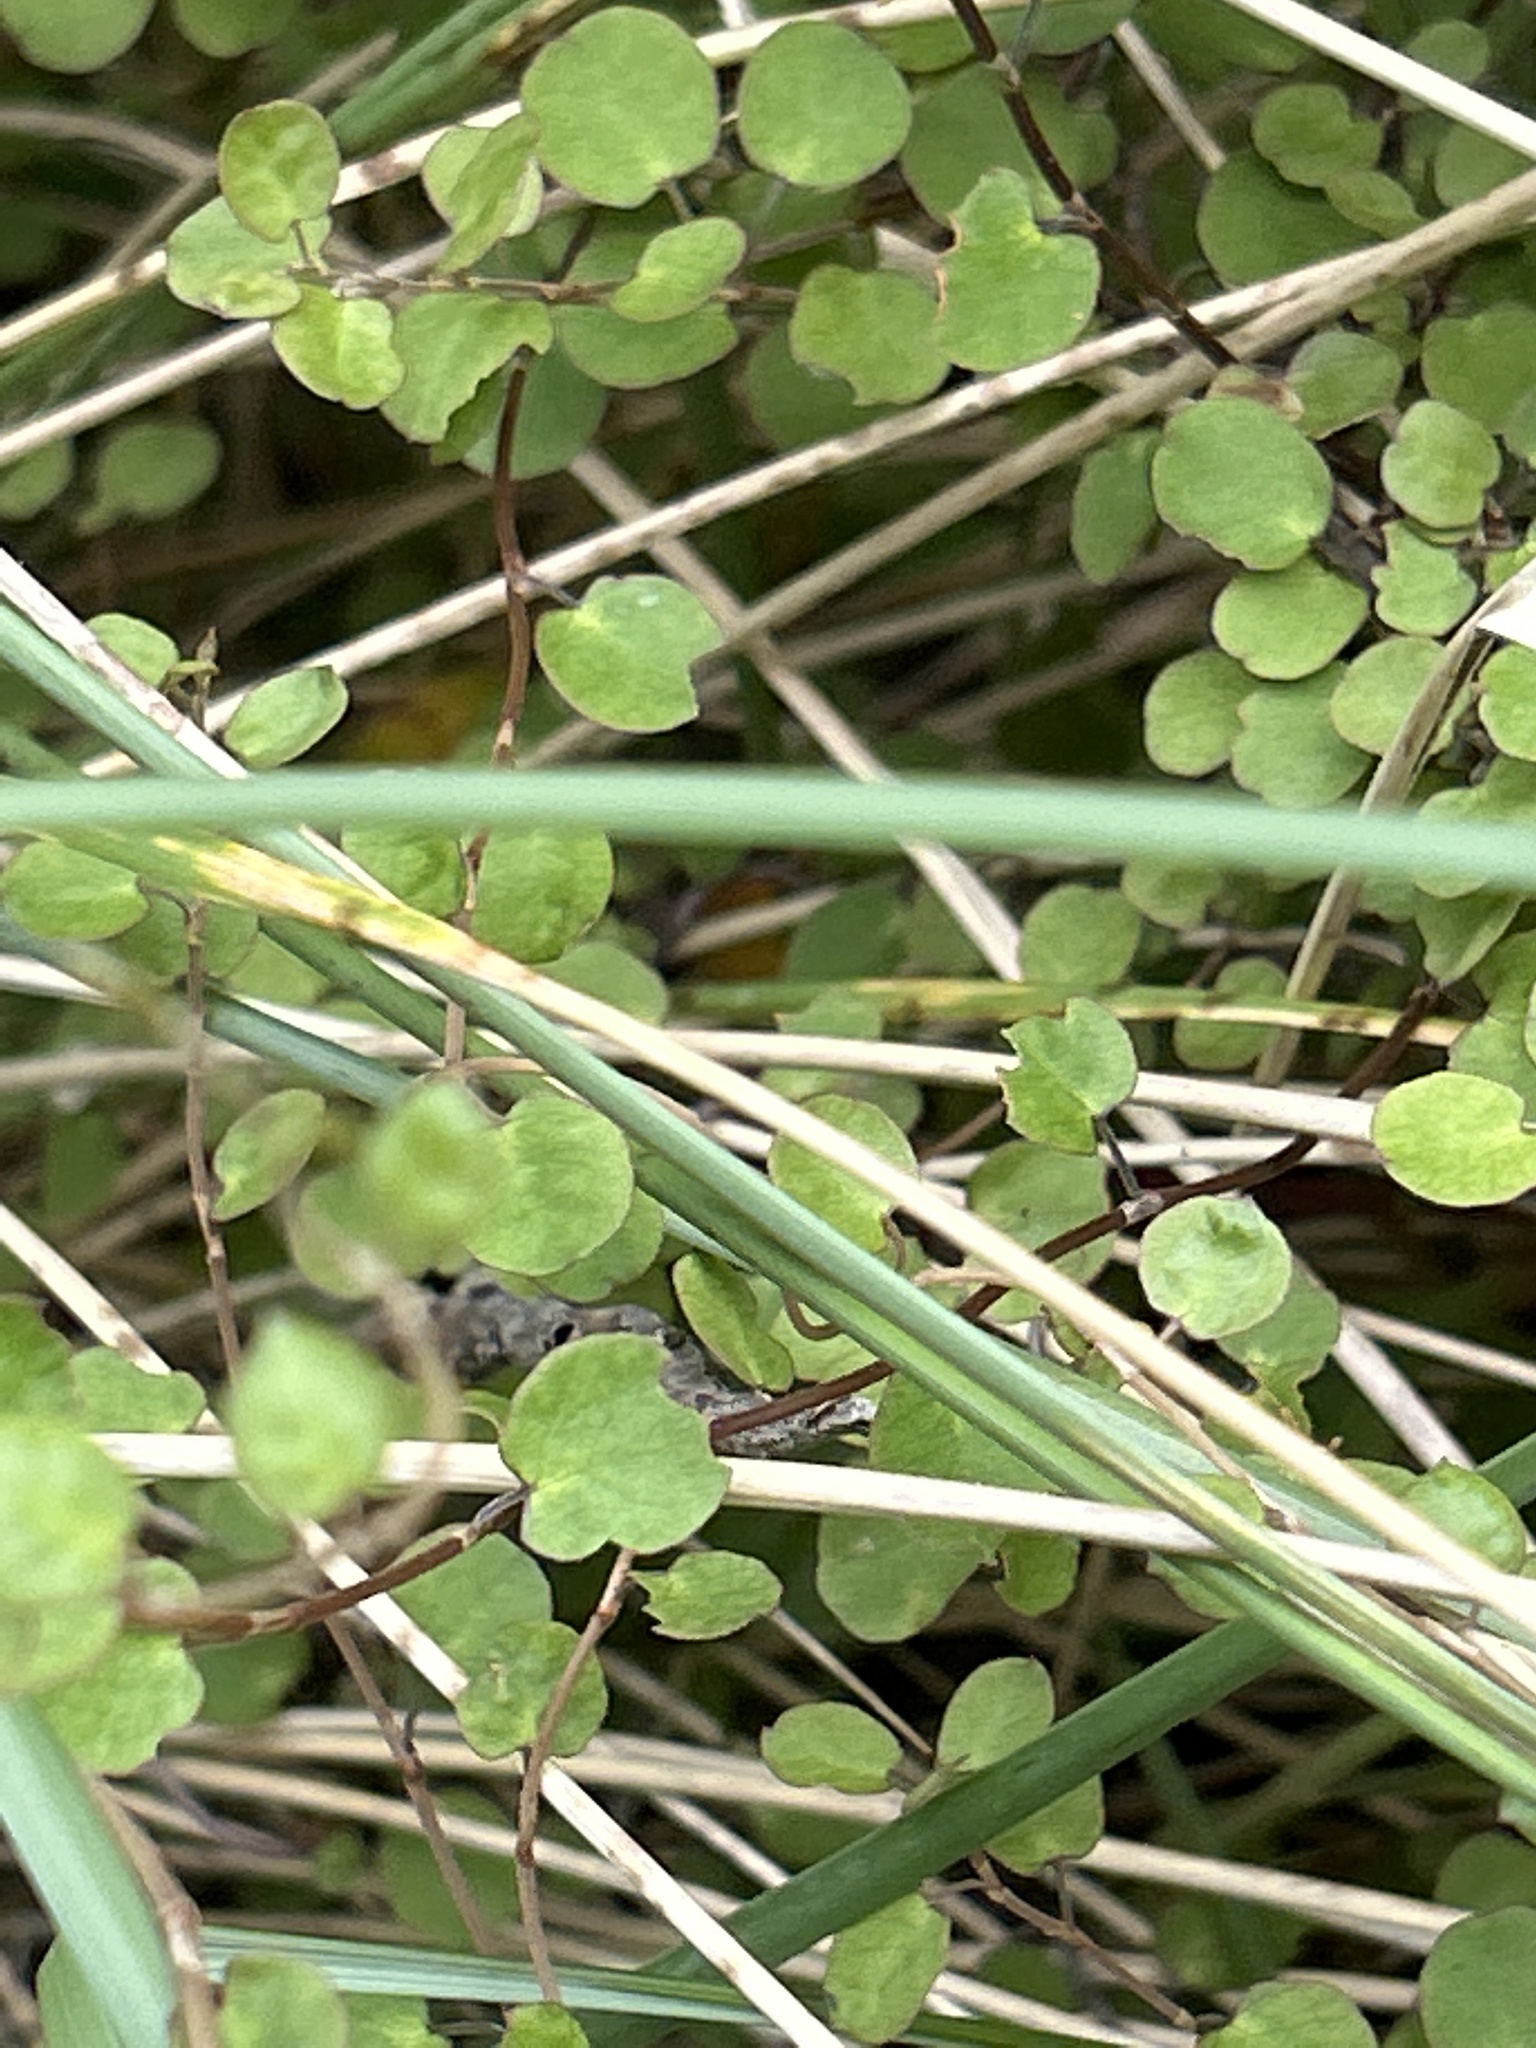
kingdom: Plantae
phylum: Tracheophyta
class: Magnoliopsida
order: Caryophyllales
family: Polygonaceae
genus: Muehlenbeckia
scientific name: Muehlenbeckia complexa
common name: Wireplant
